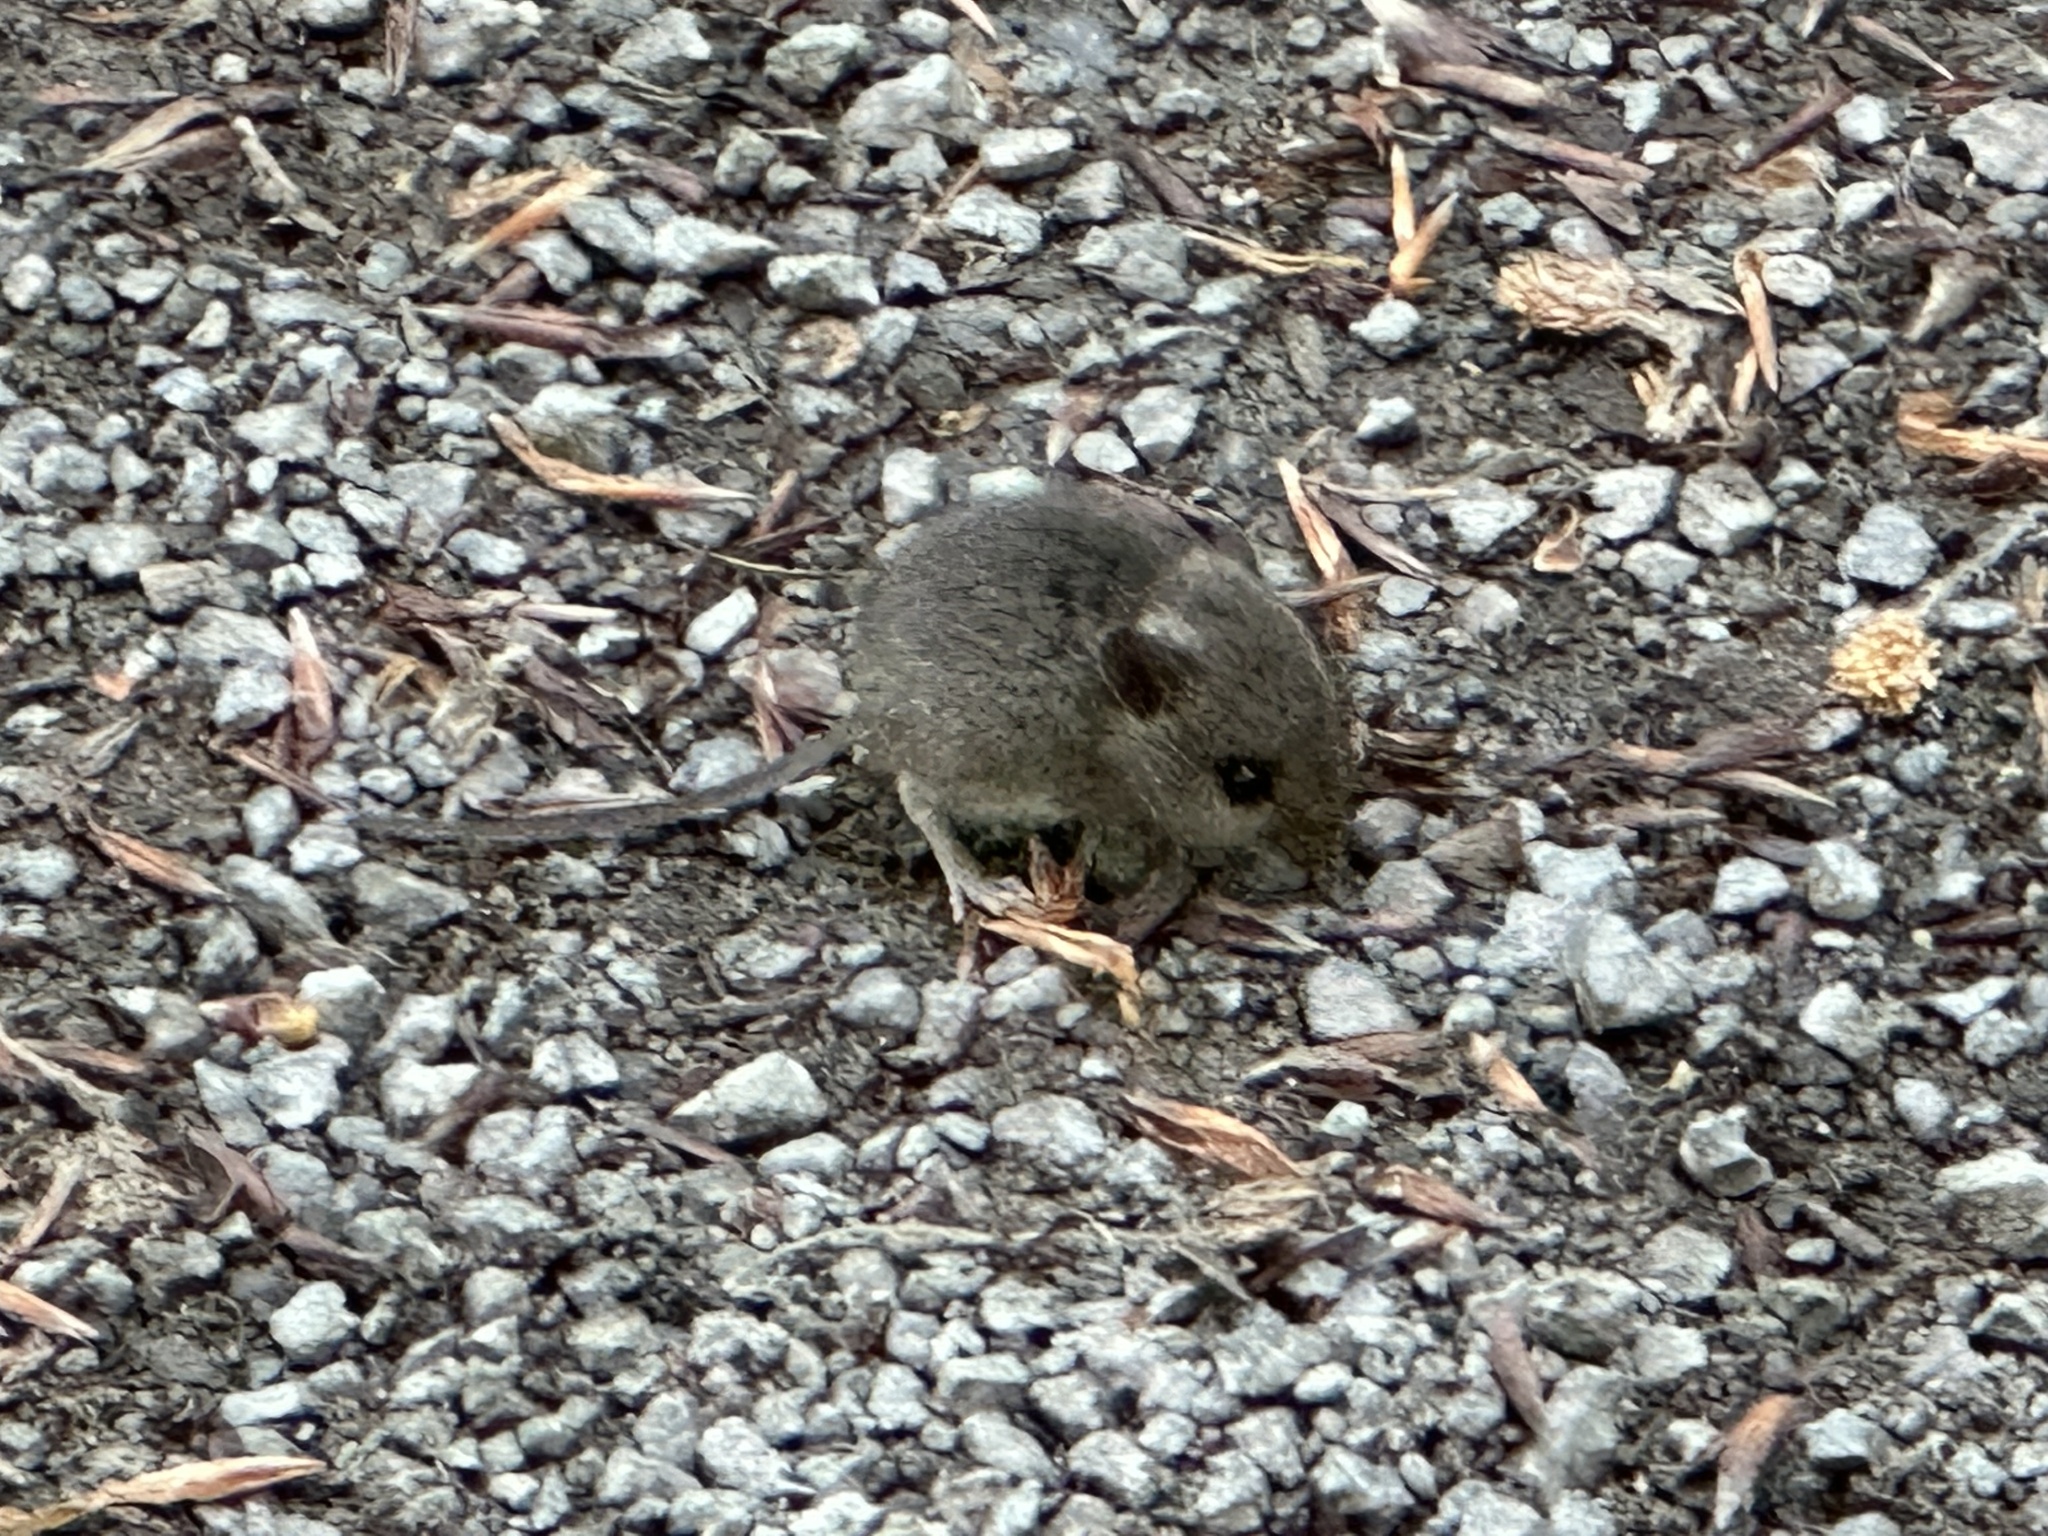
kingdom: Animalia
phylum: Chordata
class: Mammalia
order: Rodentia
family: Muridae
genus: Apodemus
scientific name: Apodemus sylvaticus
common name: Wood mouse
